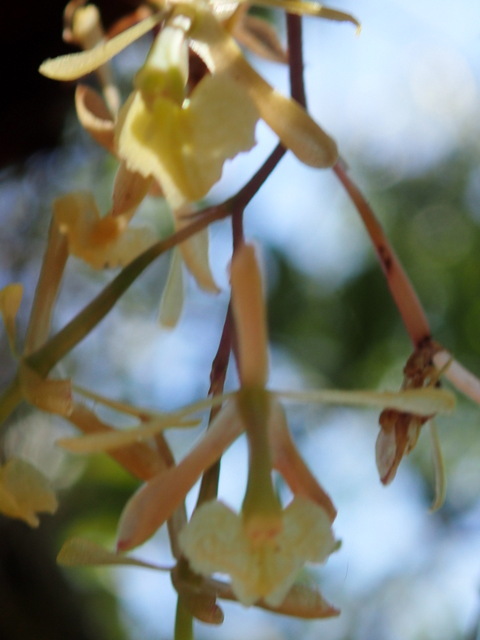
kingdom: Plantae
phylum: Tracheophyta
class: Liliopsida
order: Asparagales
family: Orchidaceae
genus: Epidendrum
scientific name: Epidendrum conopseum
